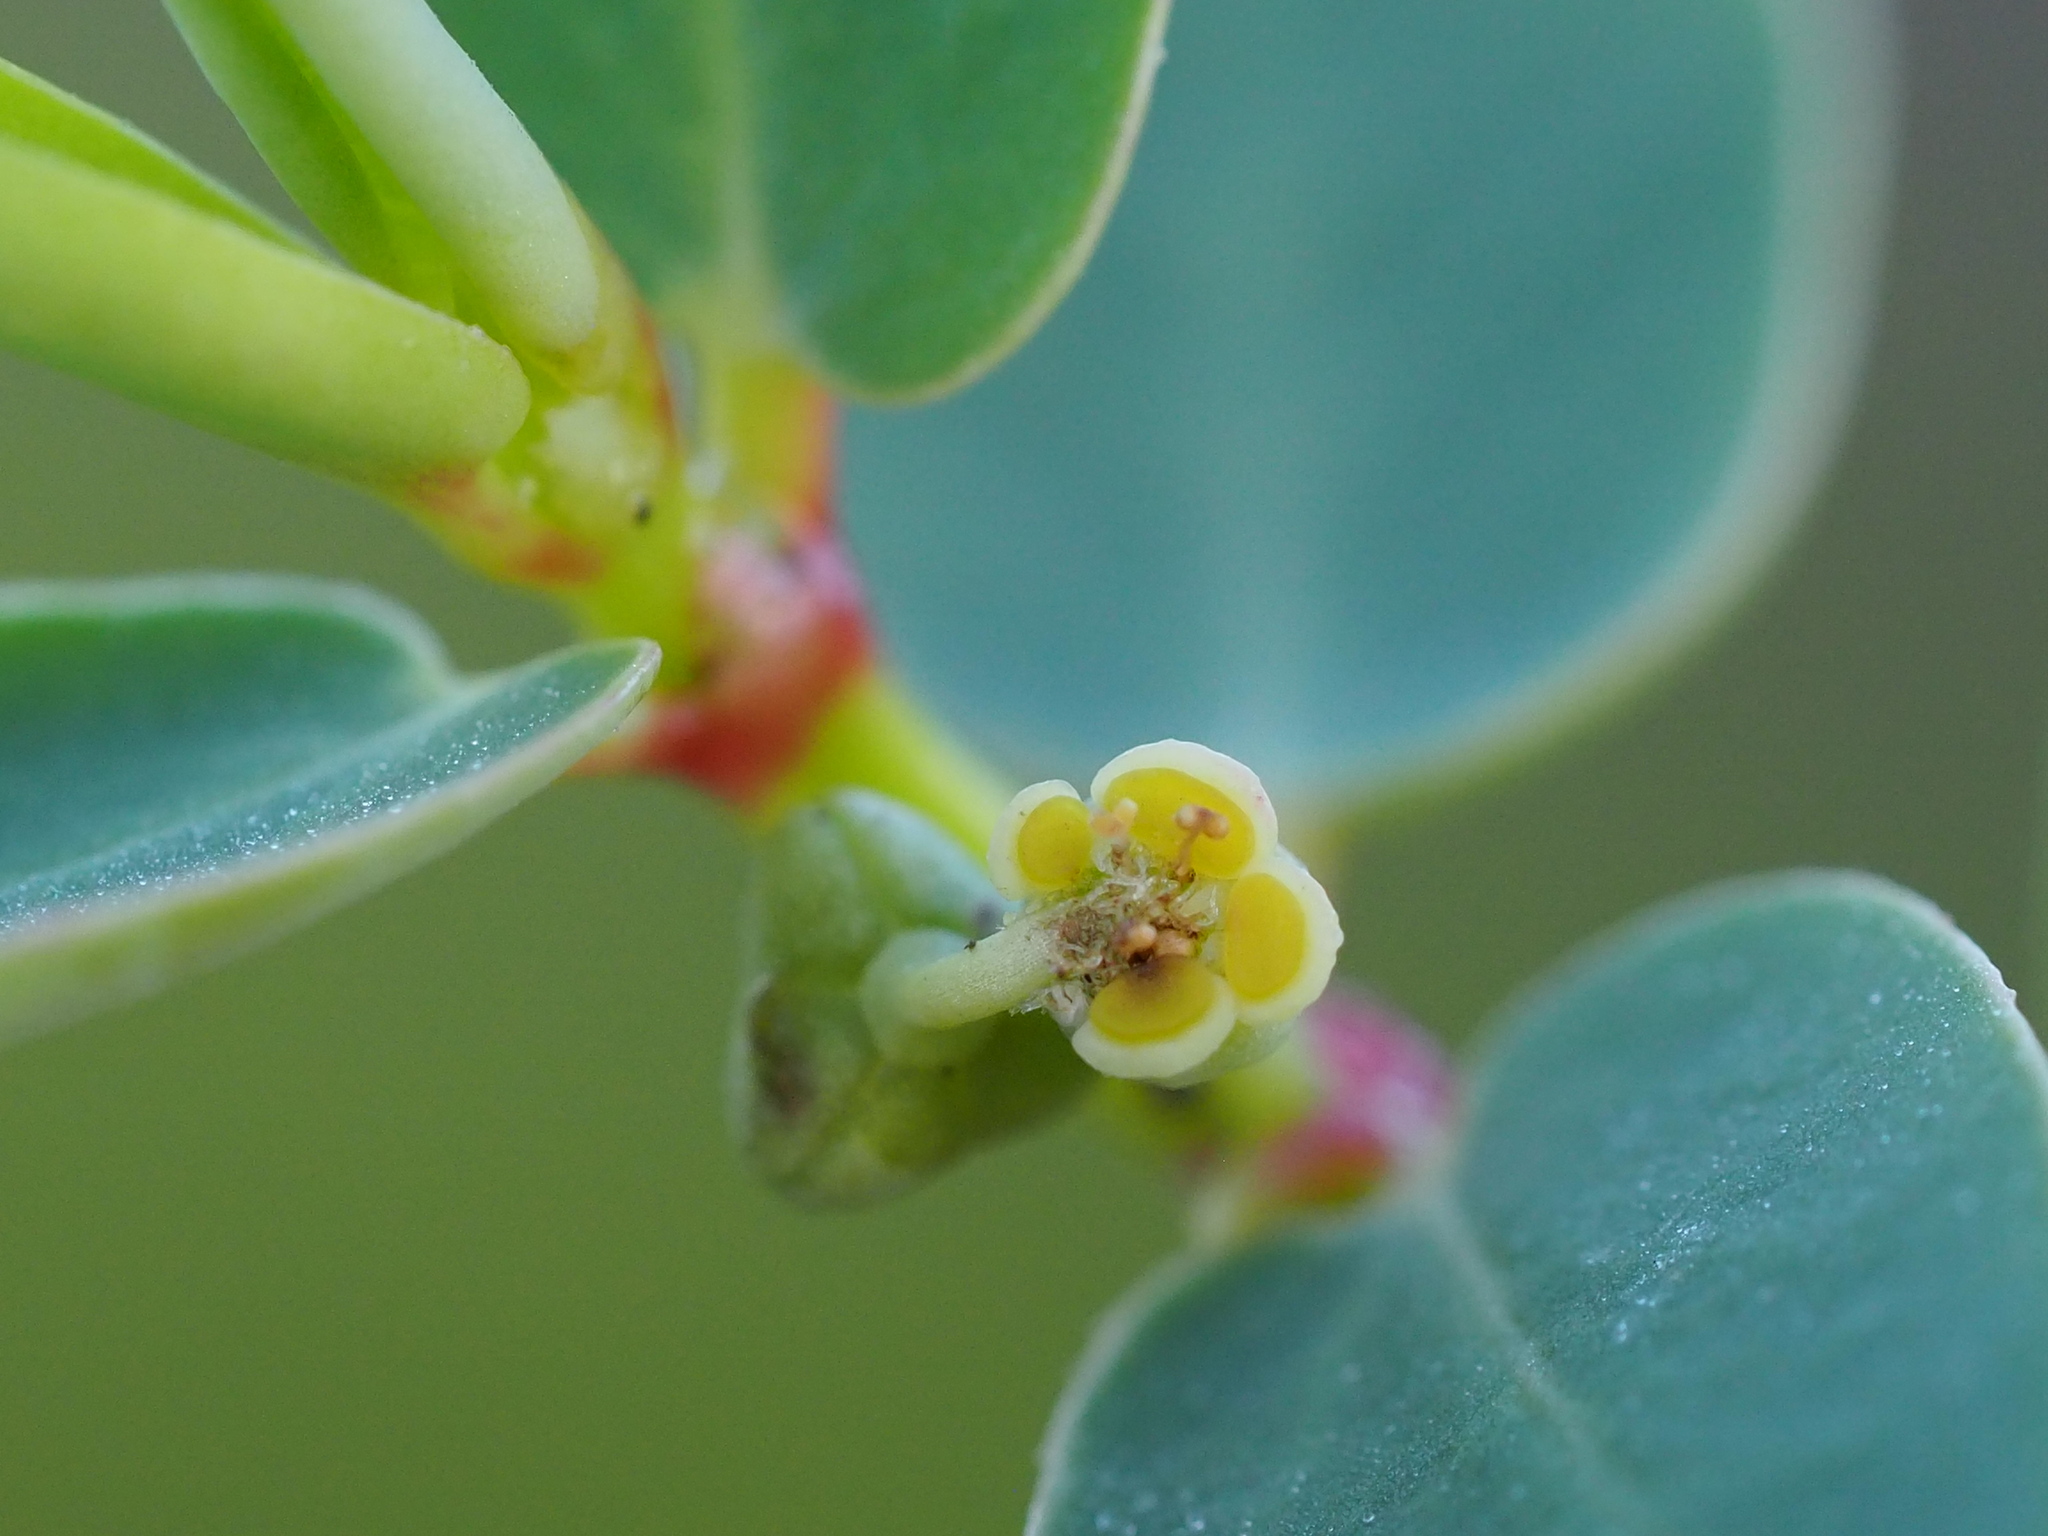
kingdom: Plantae
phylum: Tracheophyta
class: Magnoliopsida
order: Malpighiales
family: Euphorbiaceae
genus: Euphorbia
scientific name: Euphorbia atoto
